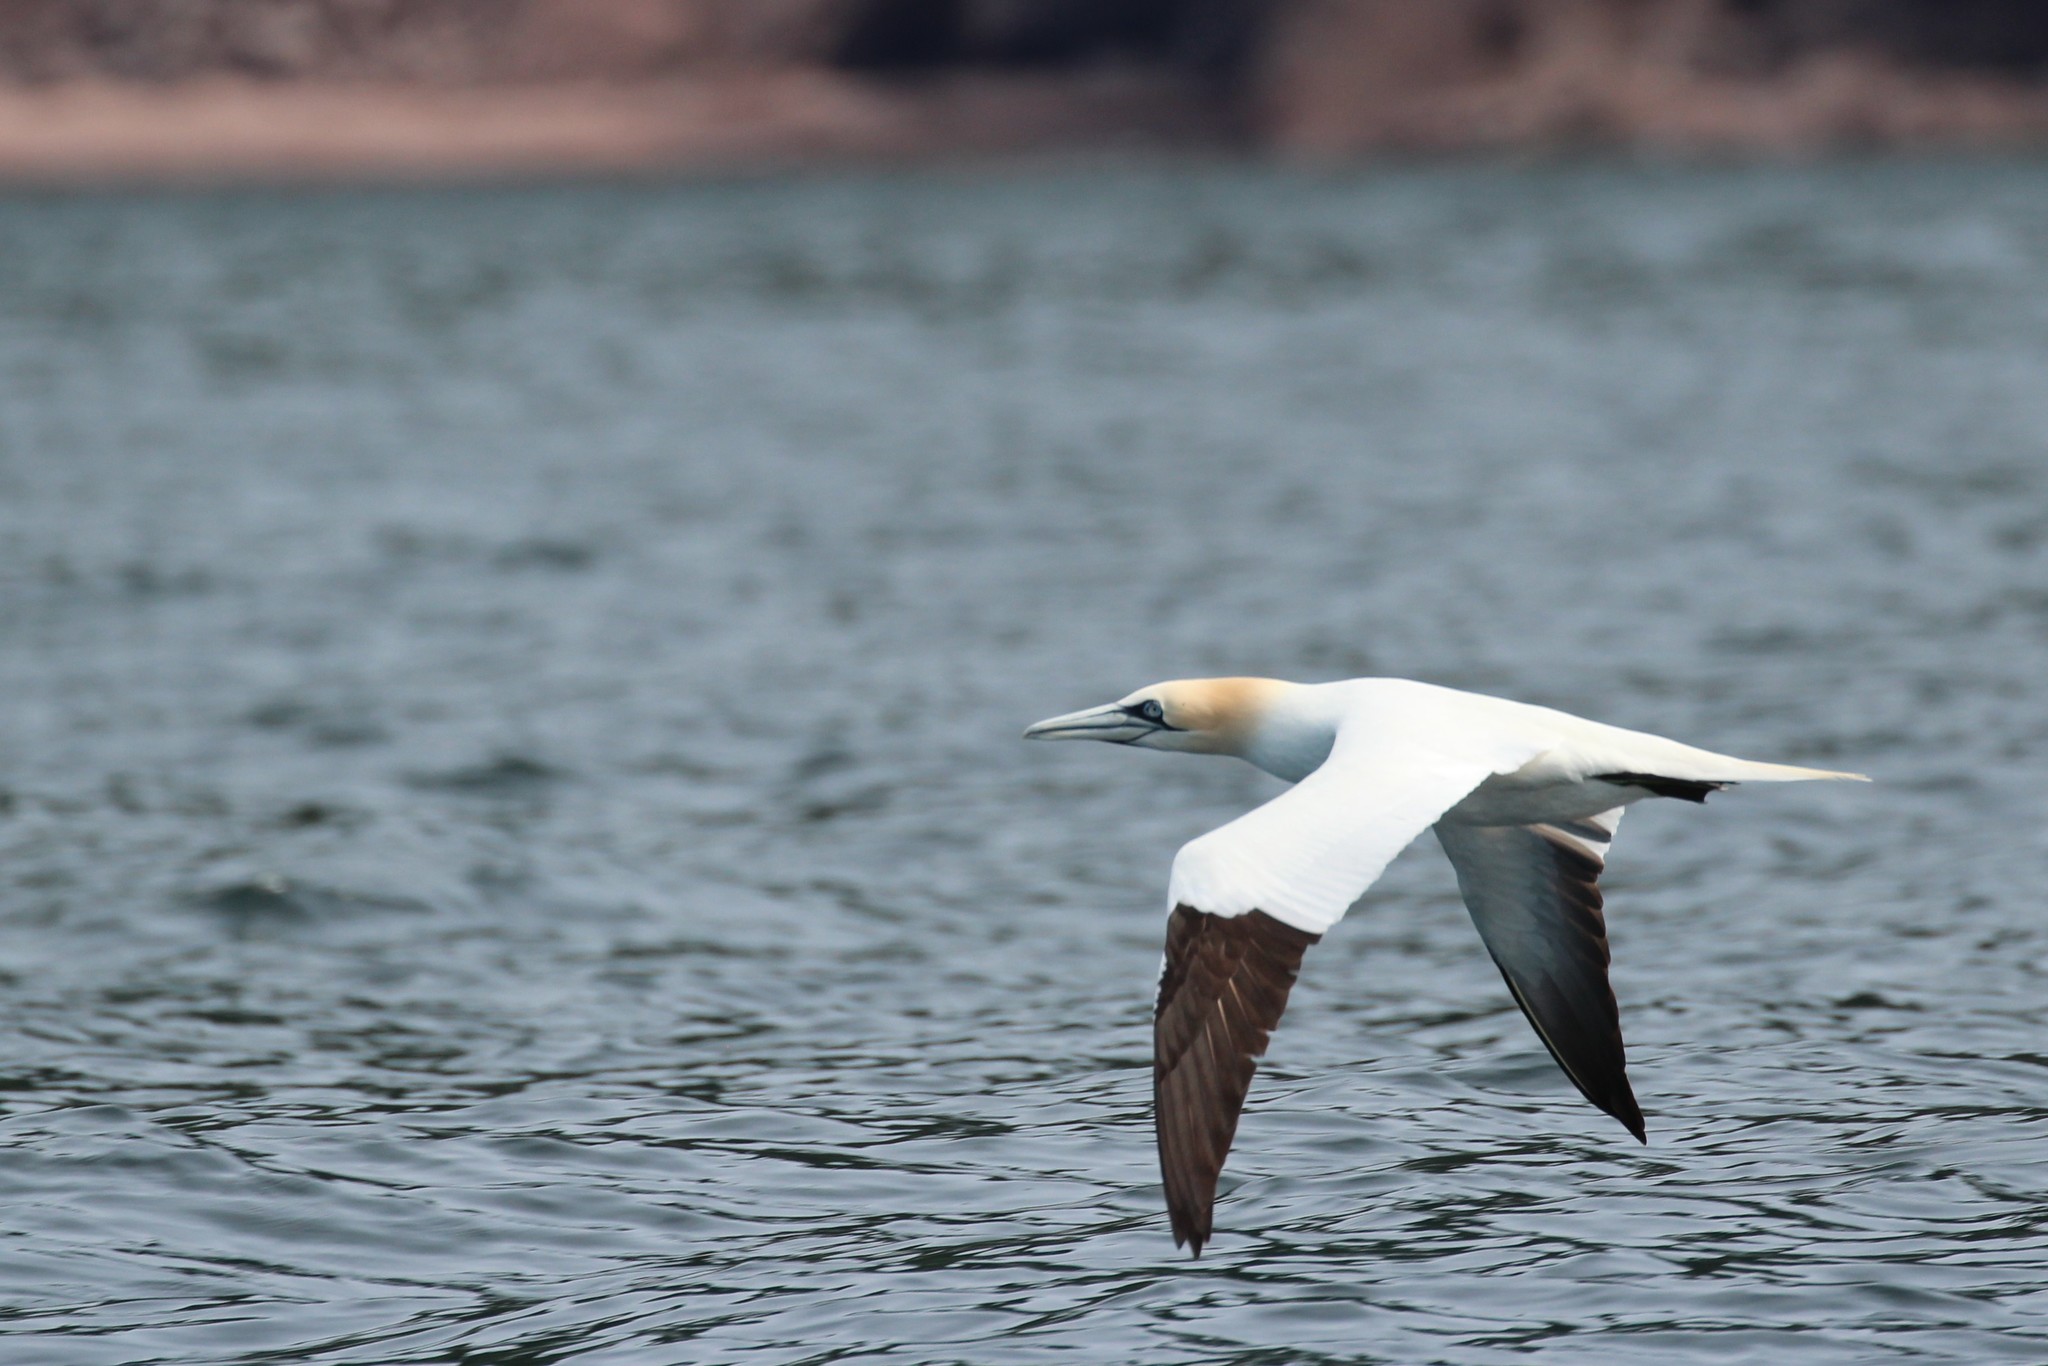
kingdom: Animalia
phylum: Chordata
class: Aves
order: Suliformes
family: Sulidae
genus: Morus
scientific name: Morus bassanus
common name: Northern gannet
